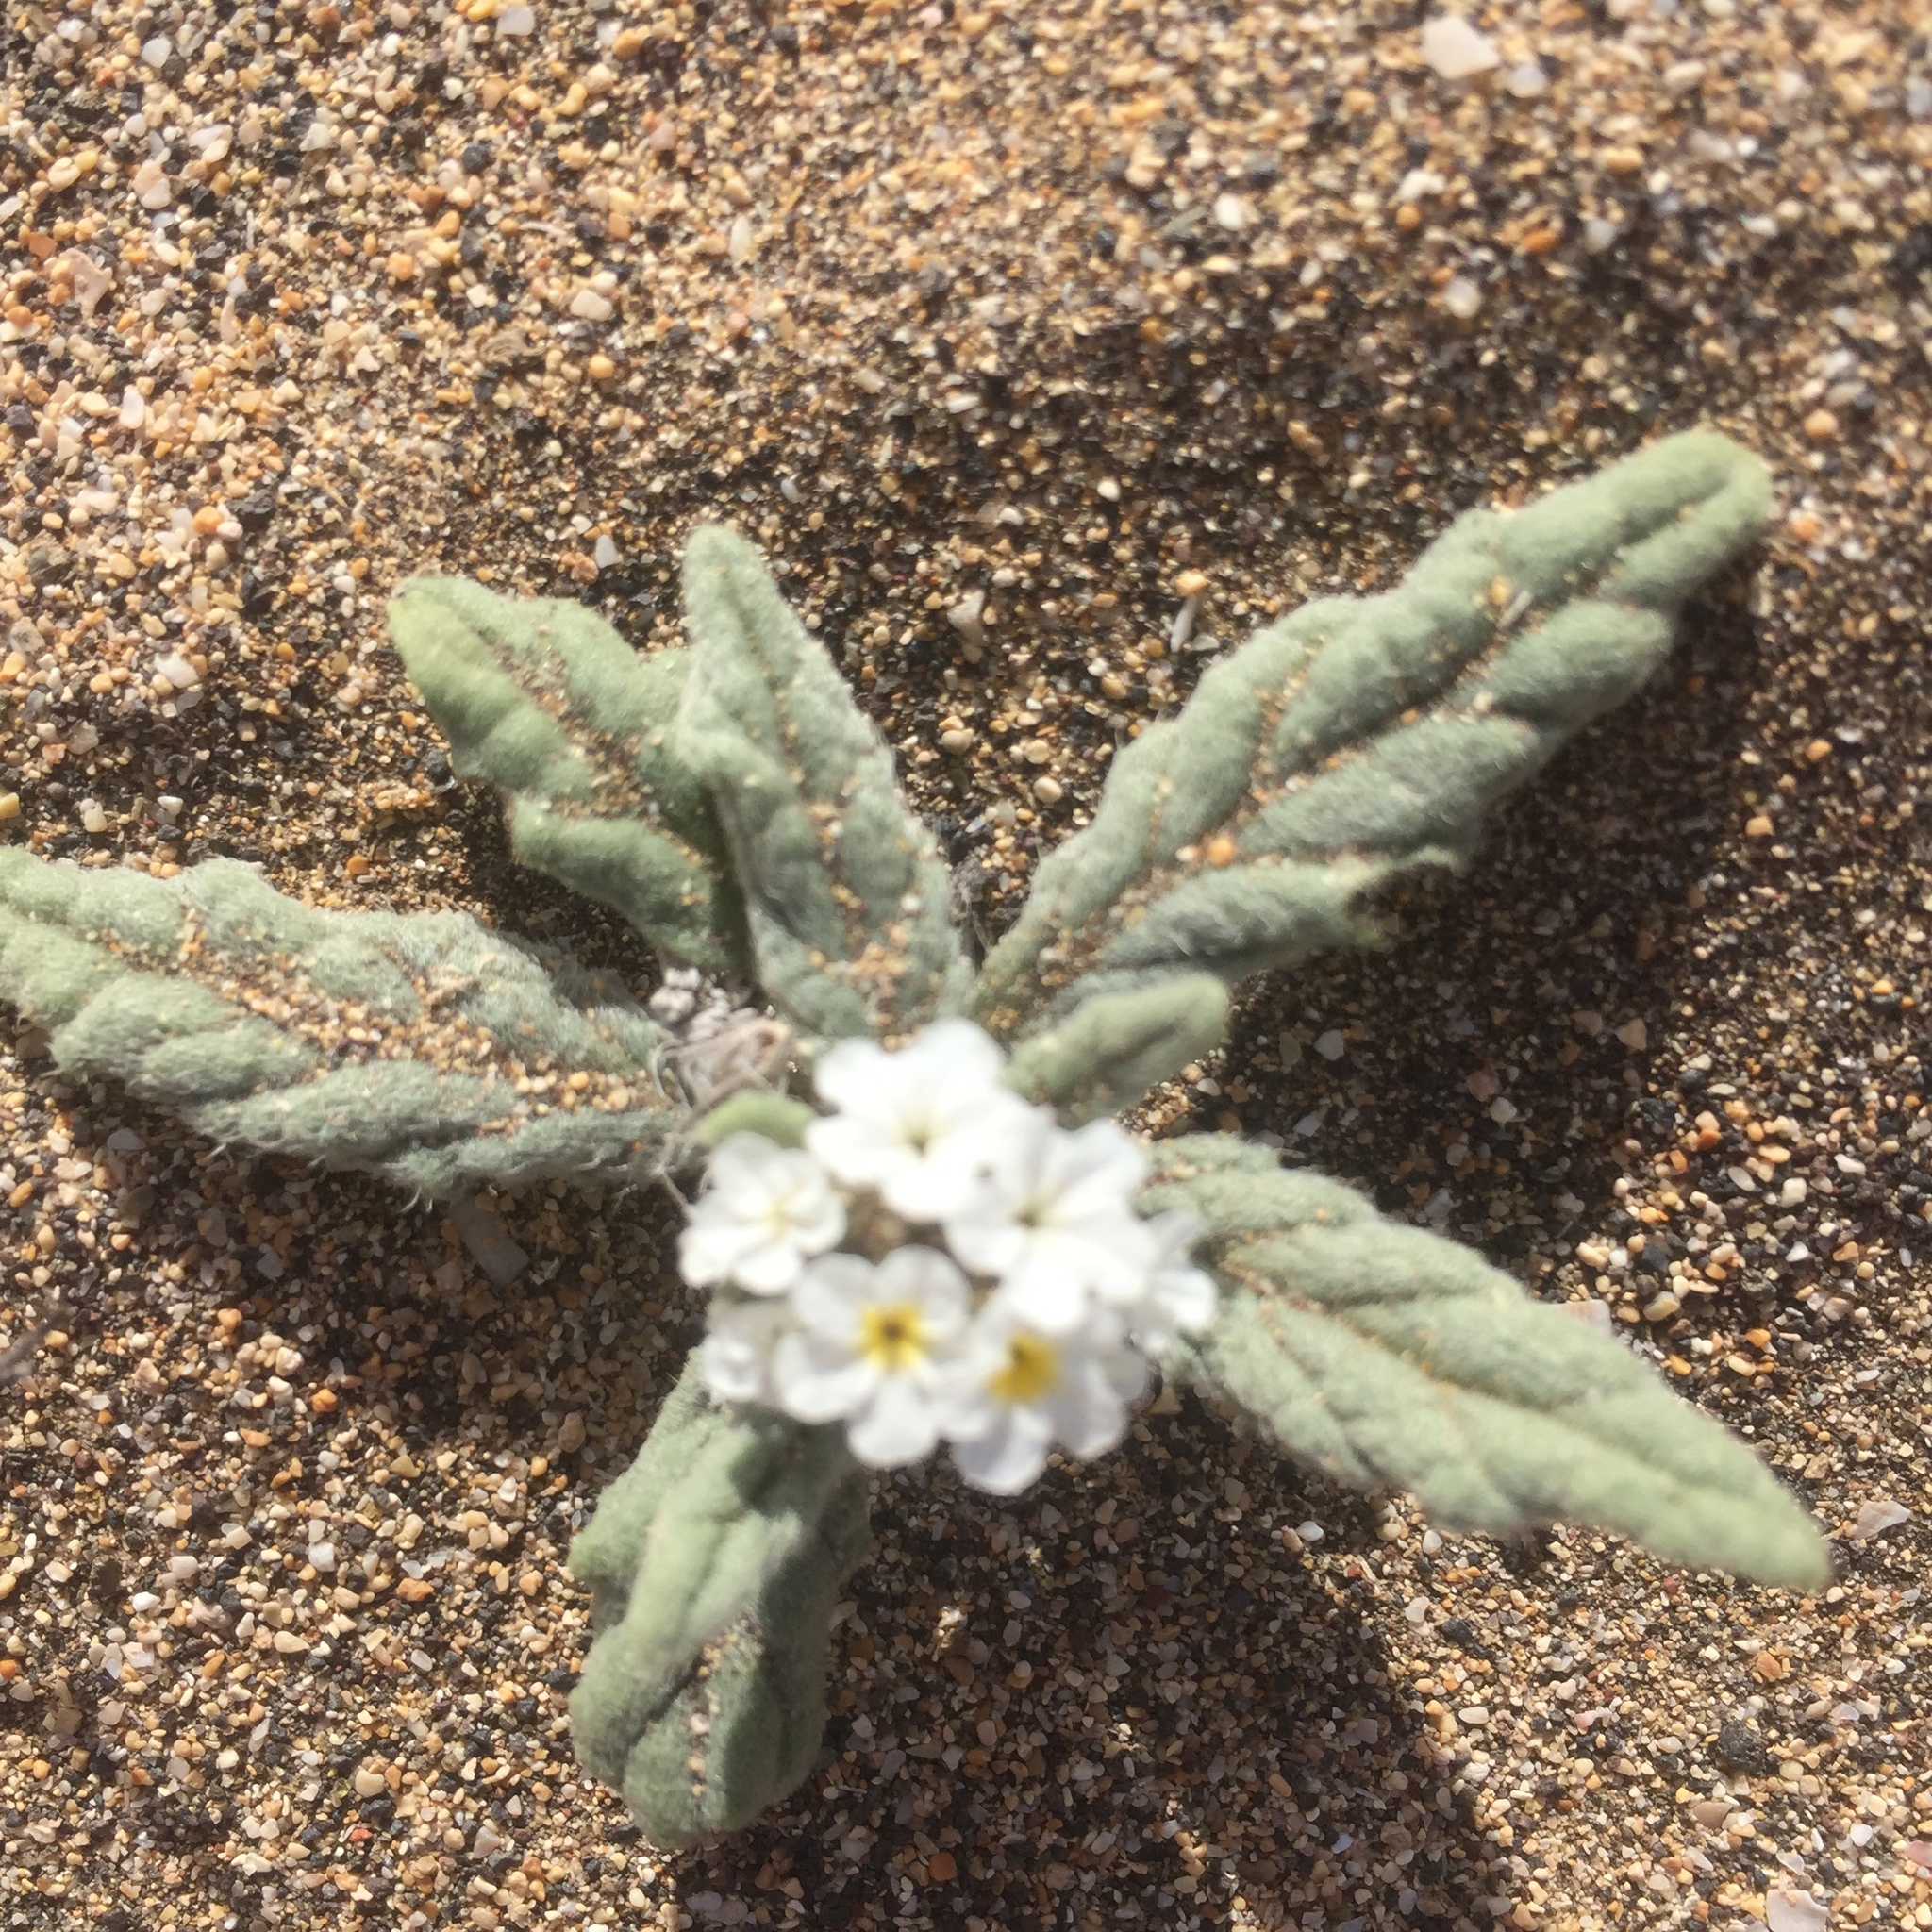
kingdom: Plantae
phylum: Tracheophyta
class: Magnoliopsida
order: Boraginales
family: Heliotropiaceae
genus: Heliotropium
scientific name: Heliotropium ramosissimum
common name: Wavy heliotrope
